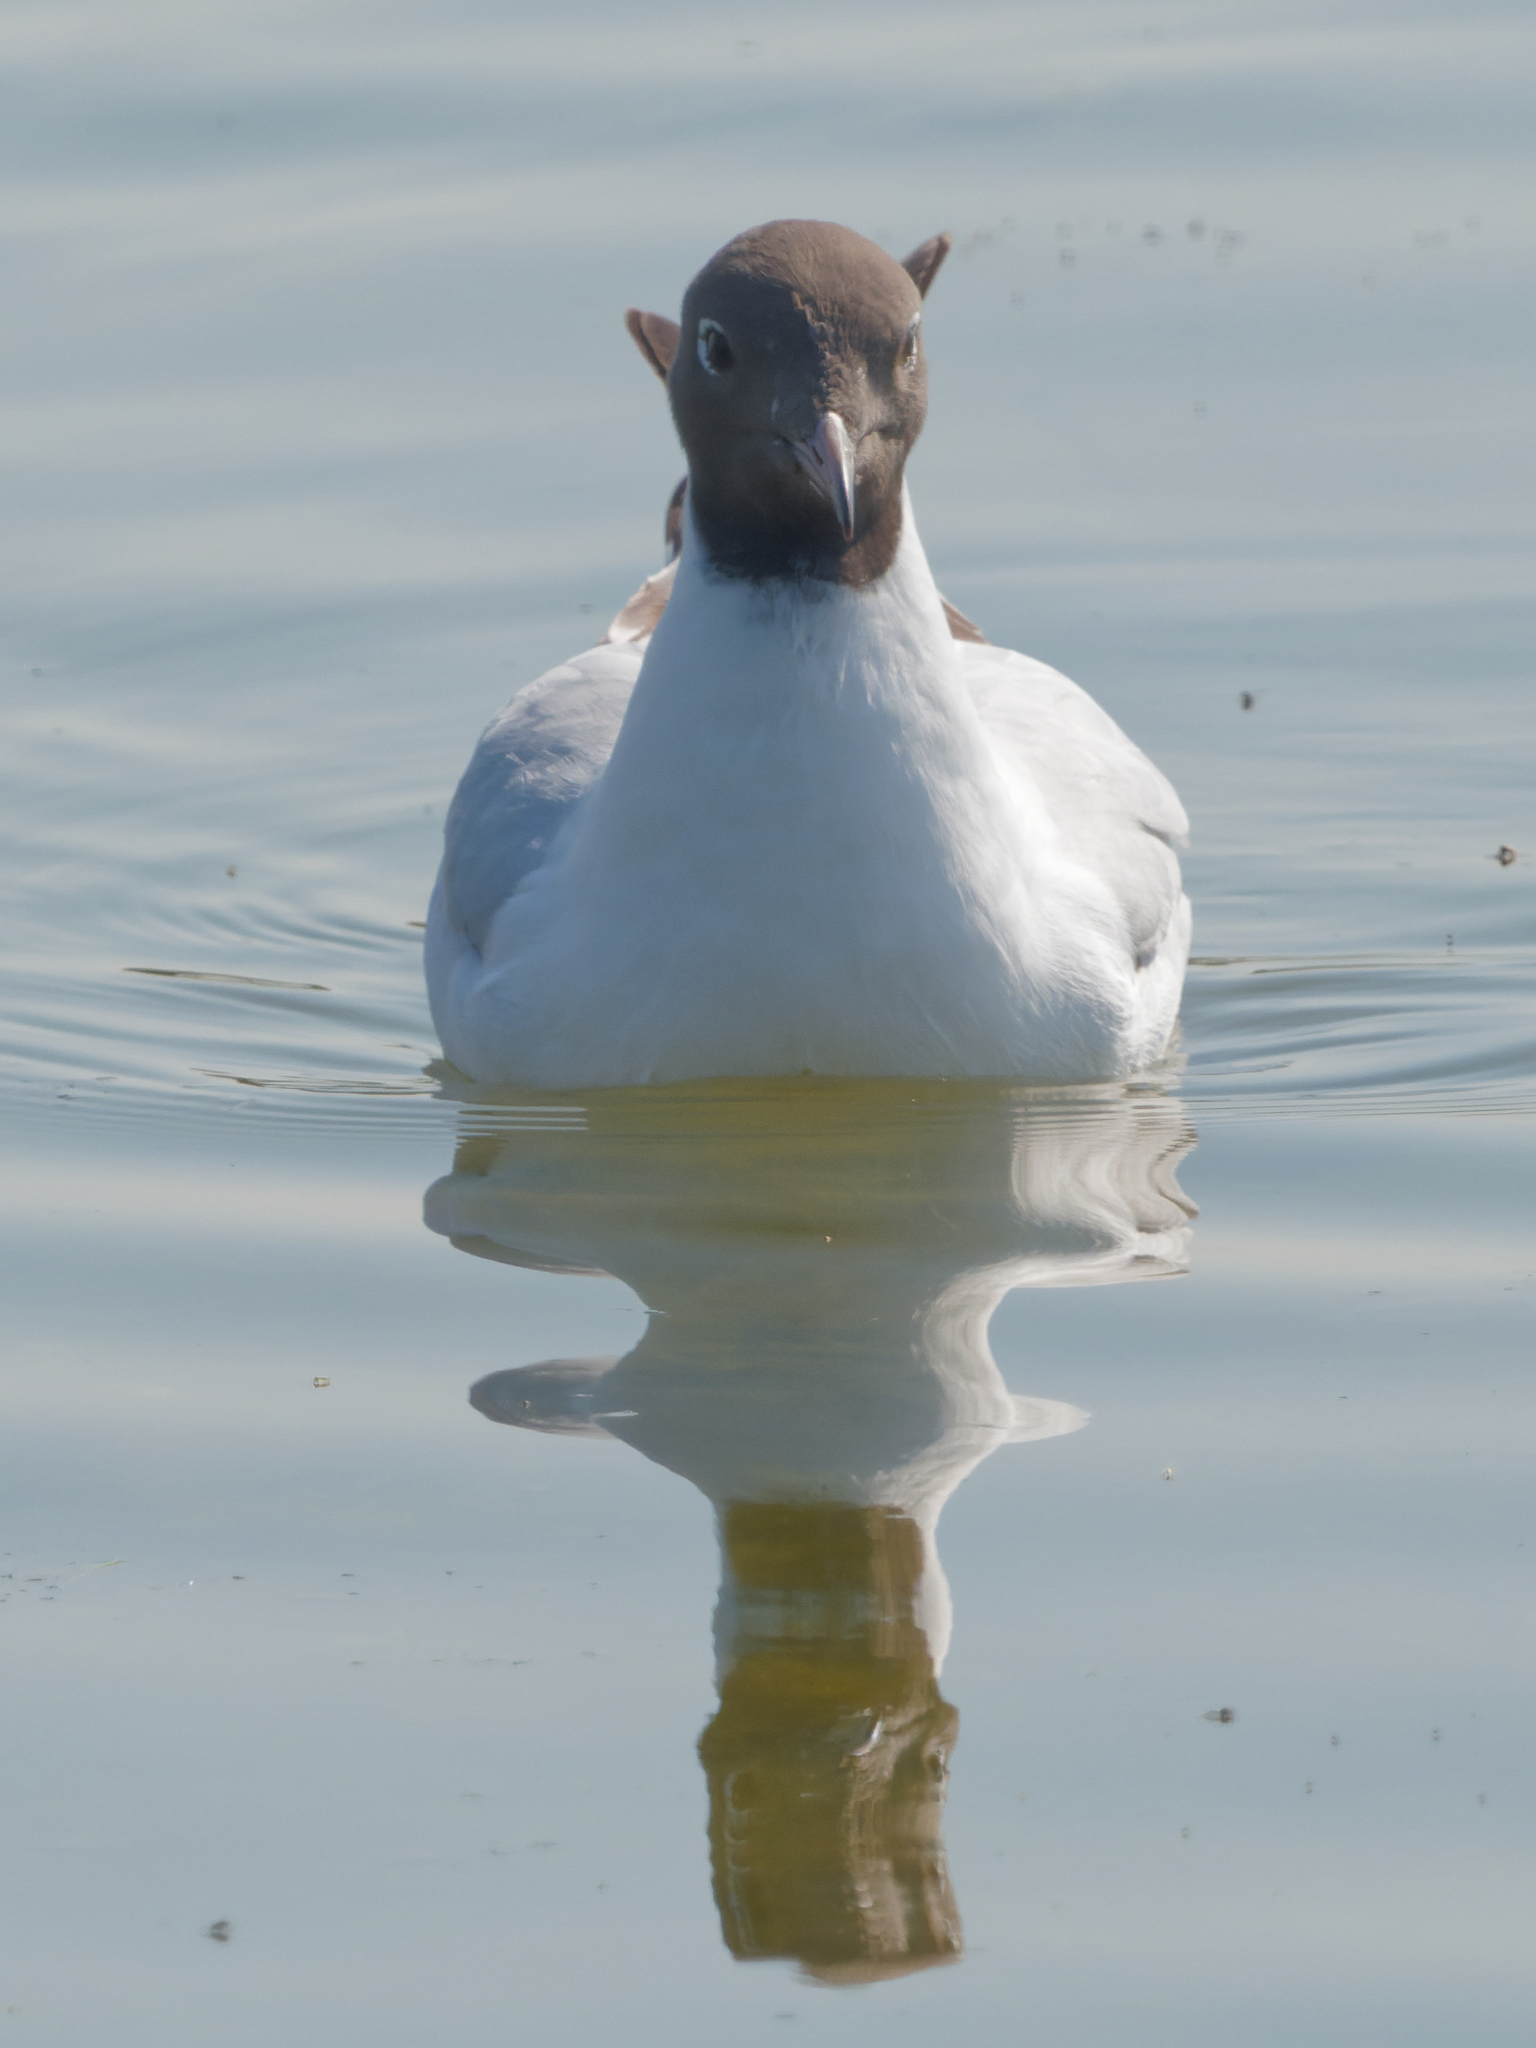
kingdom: Animalia
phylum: Chordata
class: Aves
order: Charadriiformes
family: Laridae
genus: Chroicocephalus
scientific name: Chroicocephalus ridibundus
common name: Black-headed gull
